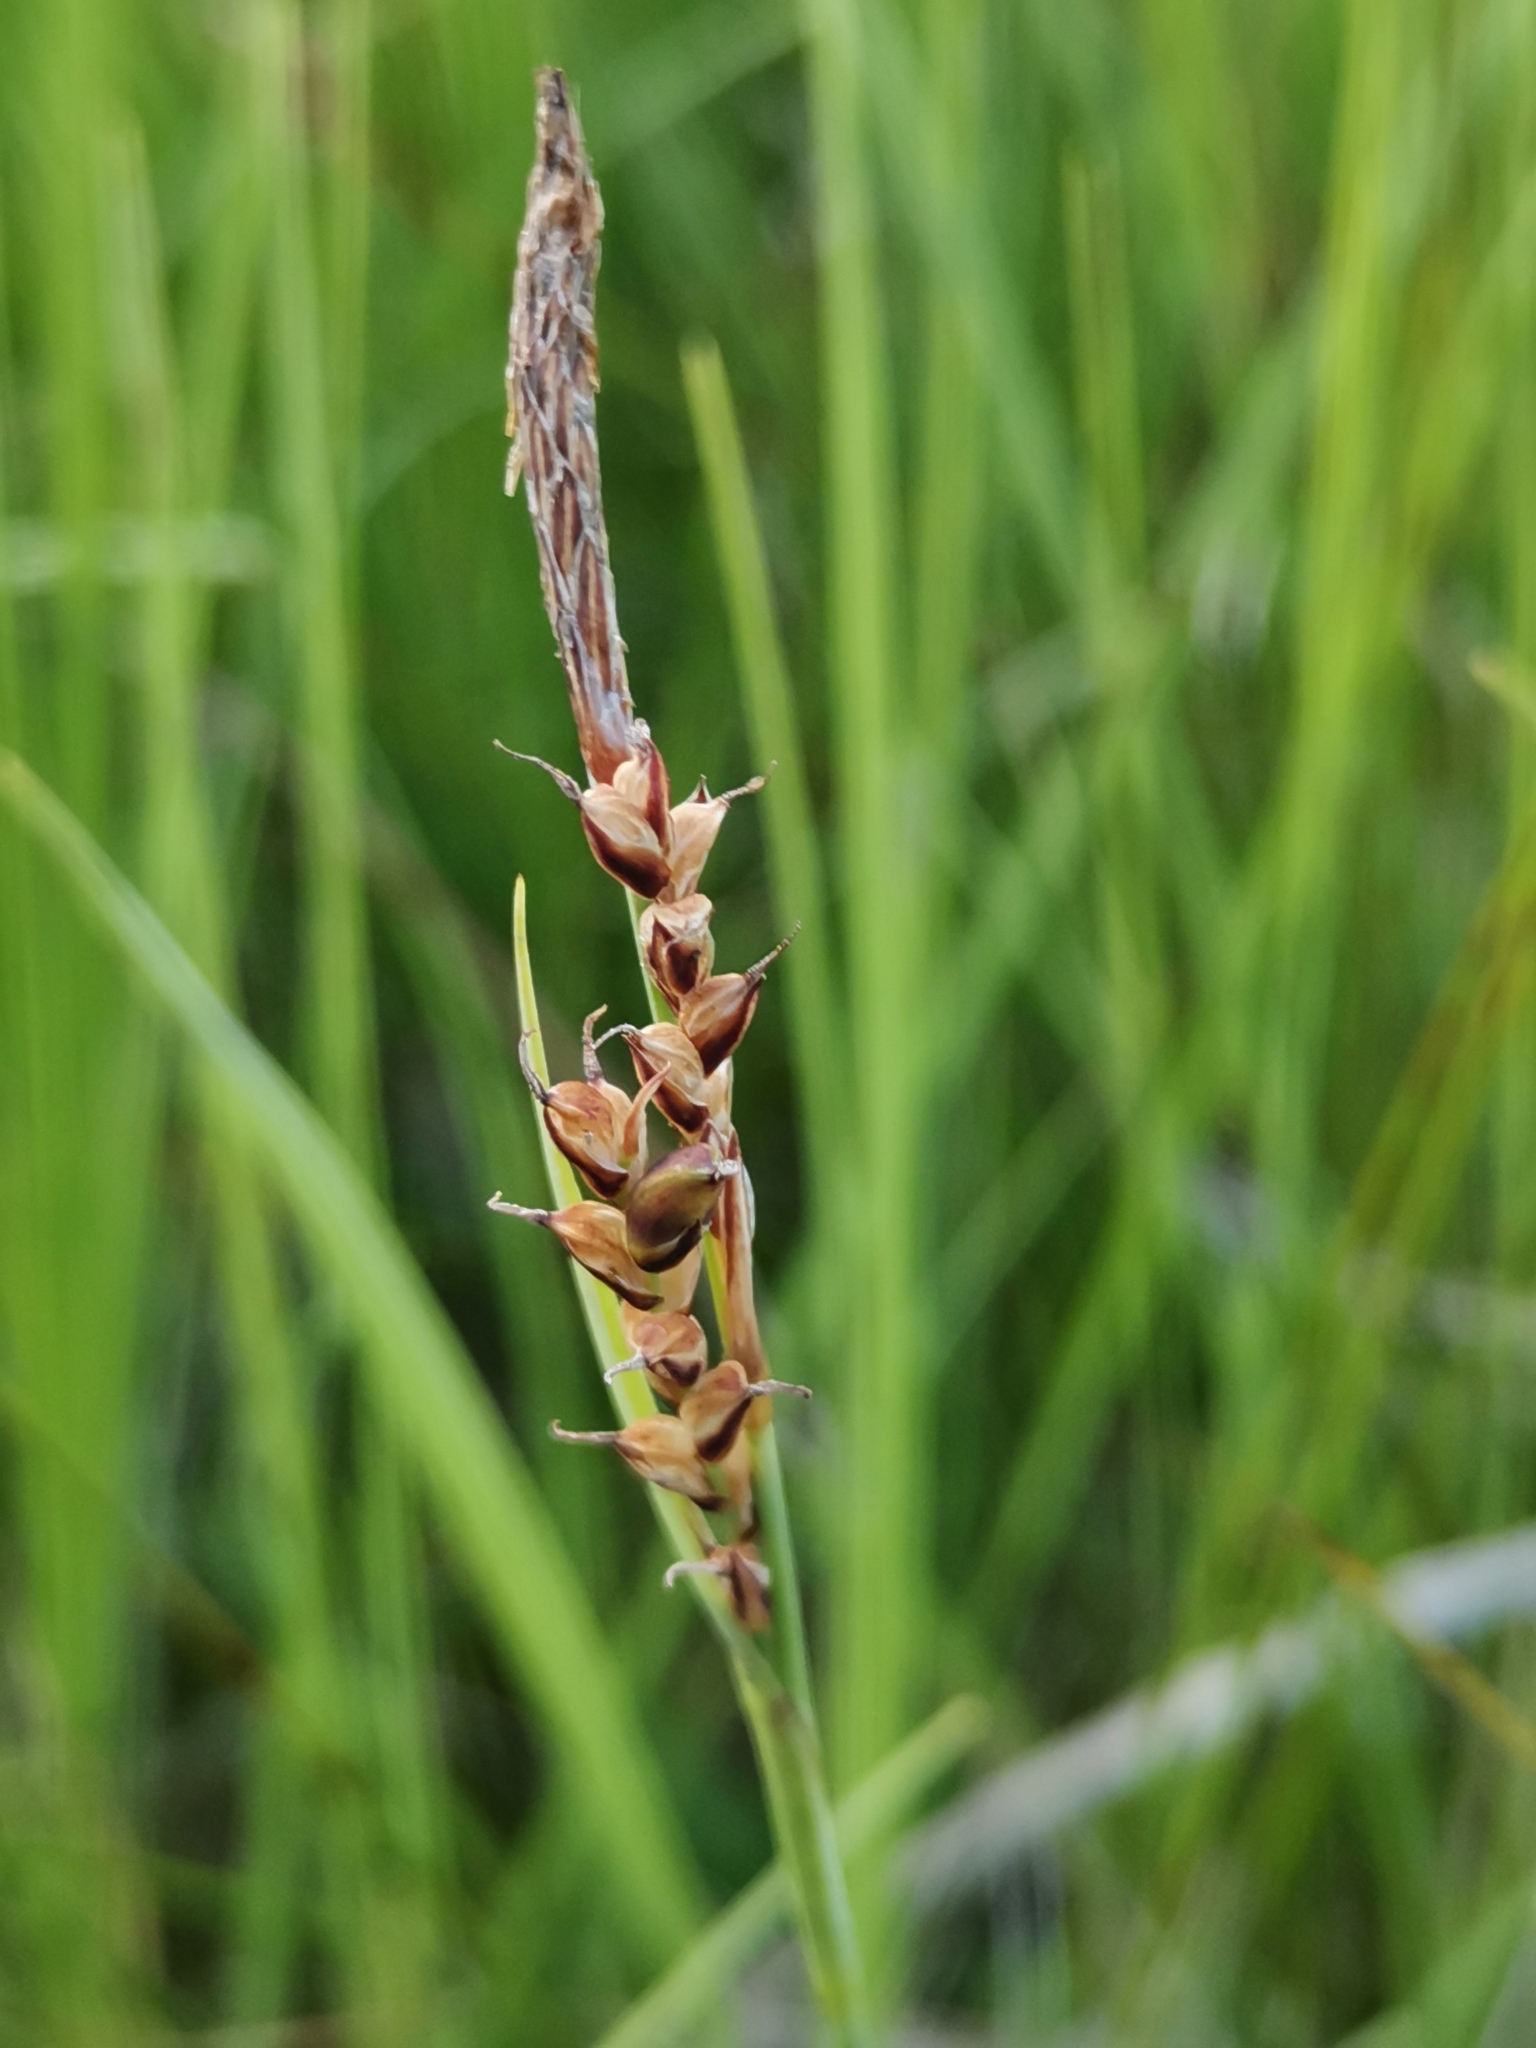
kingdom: Plantae
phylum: Tracheophyta
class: Liliopsida
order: Poales
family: Cyperaceae
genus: Carex
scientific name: Carex panicea
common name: Carnation sedge
